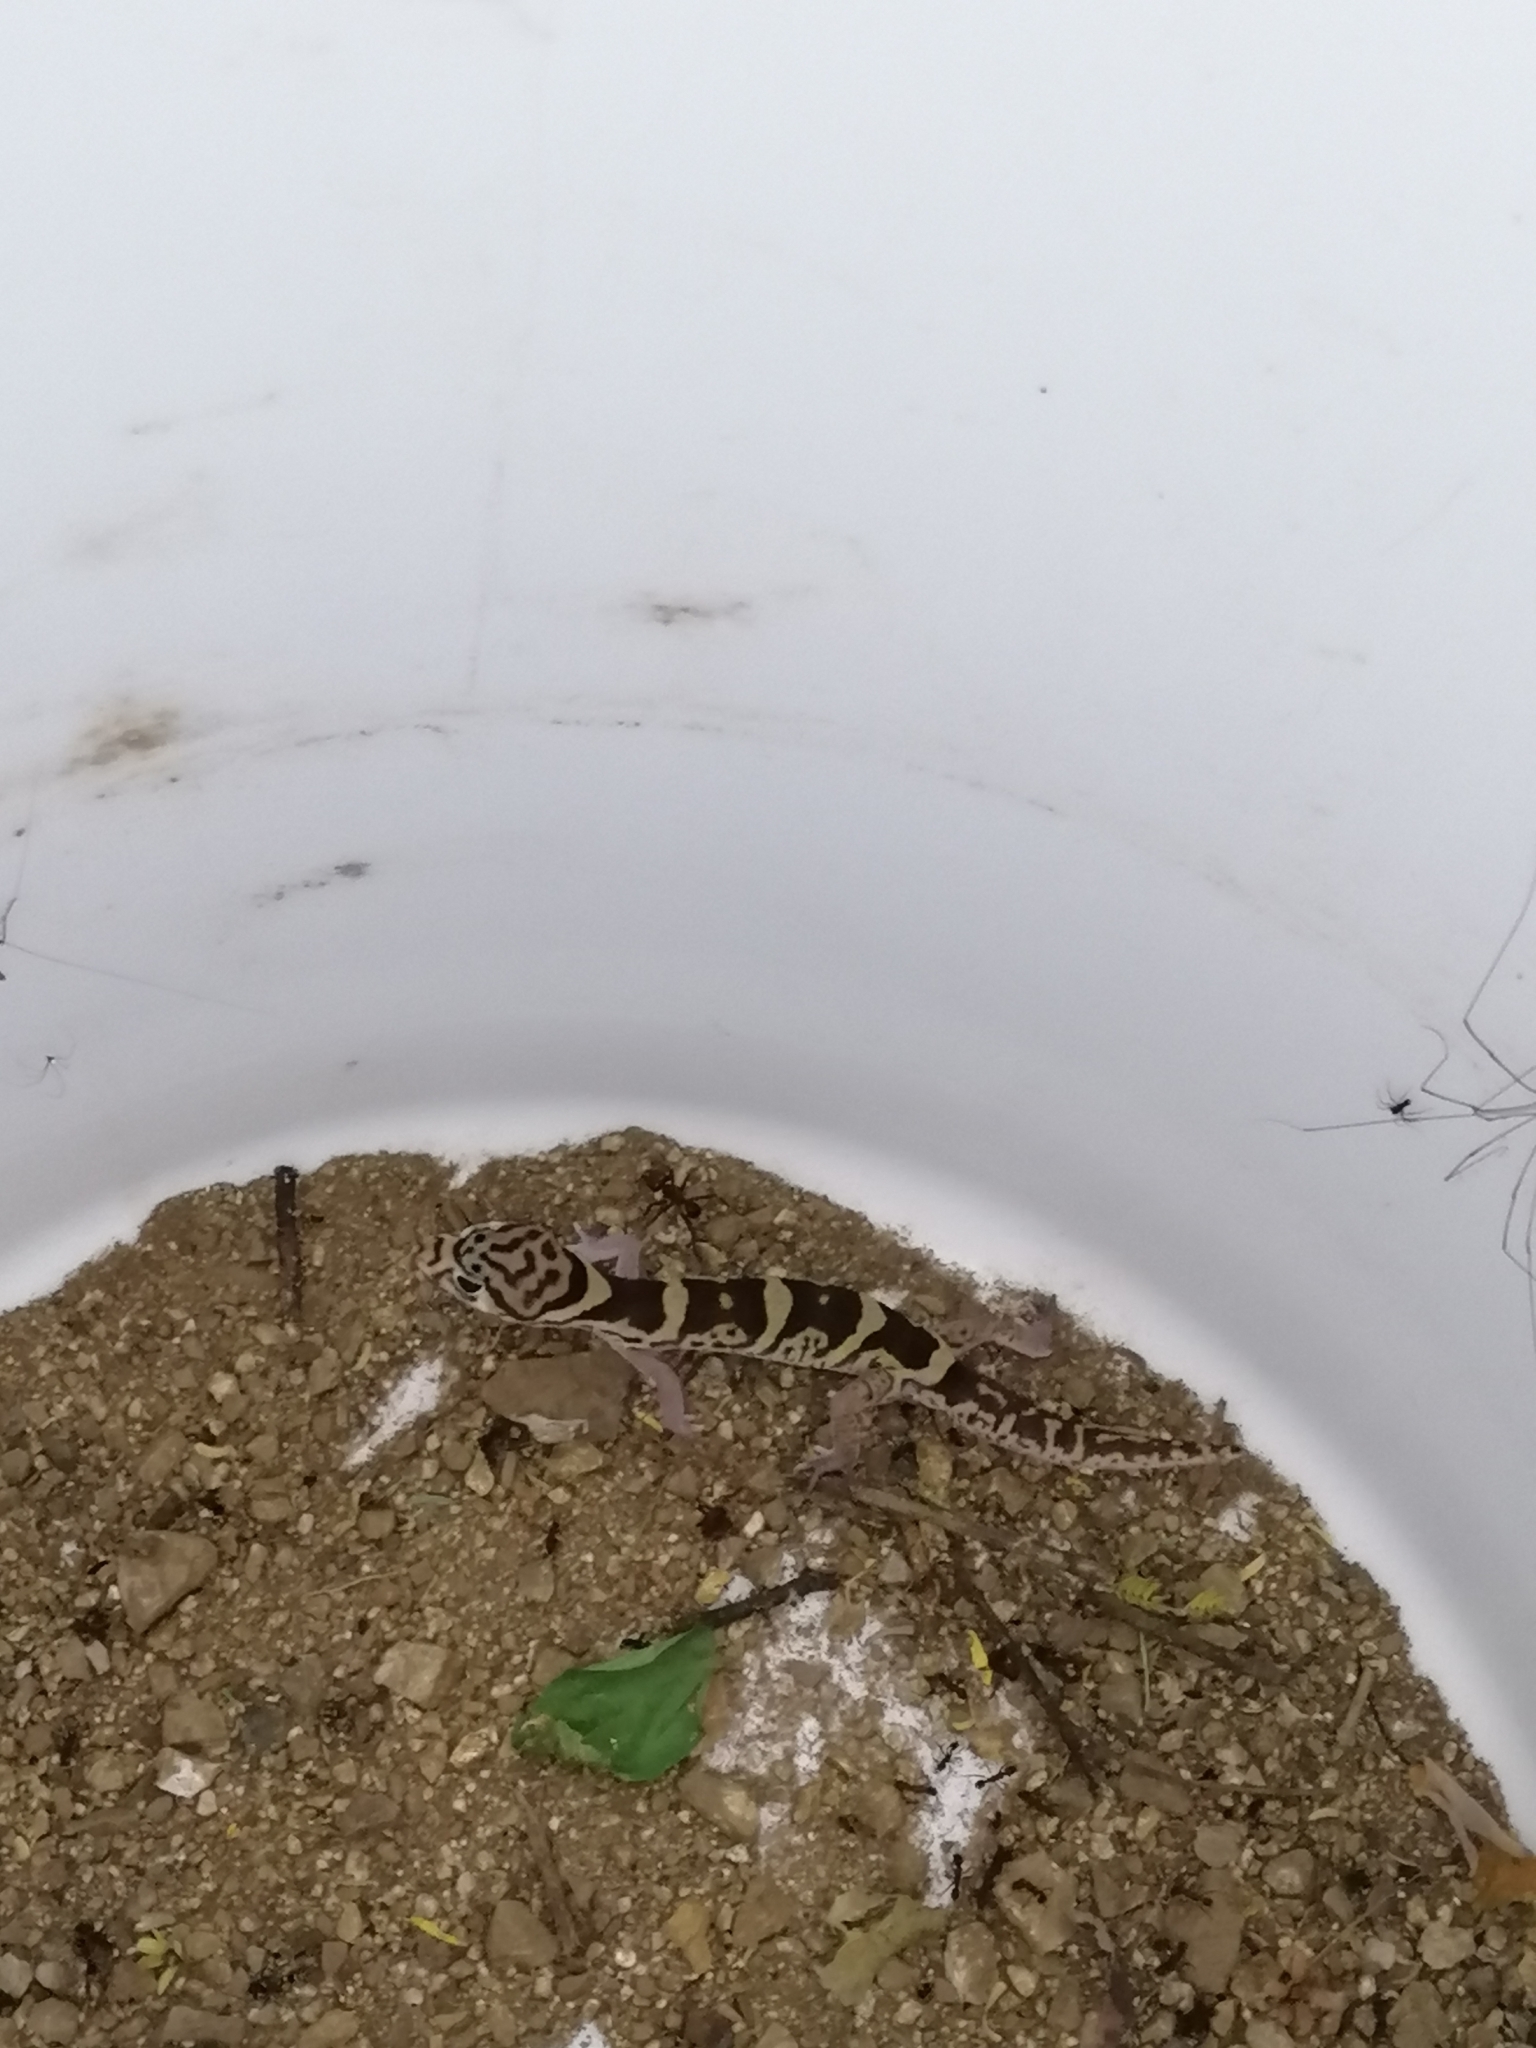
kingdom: Animalia
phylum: Chordata
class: Squamata
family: Eublepharidae
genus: Coleonyx
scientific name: Coleonyx mitratus
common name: Central american banded gecko
